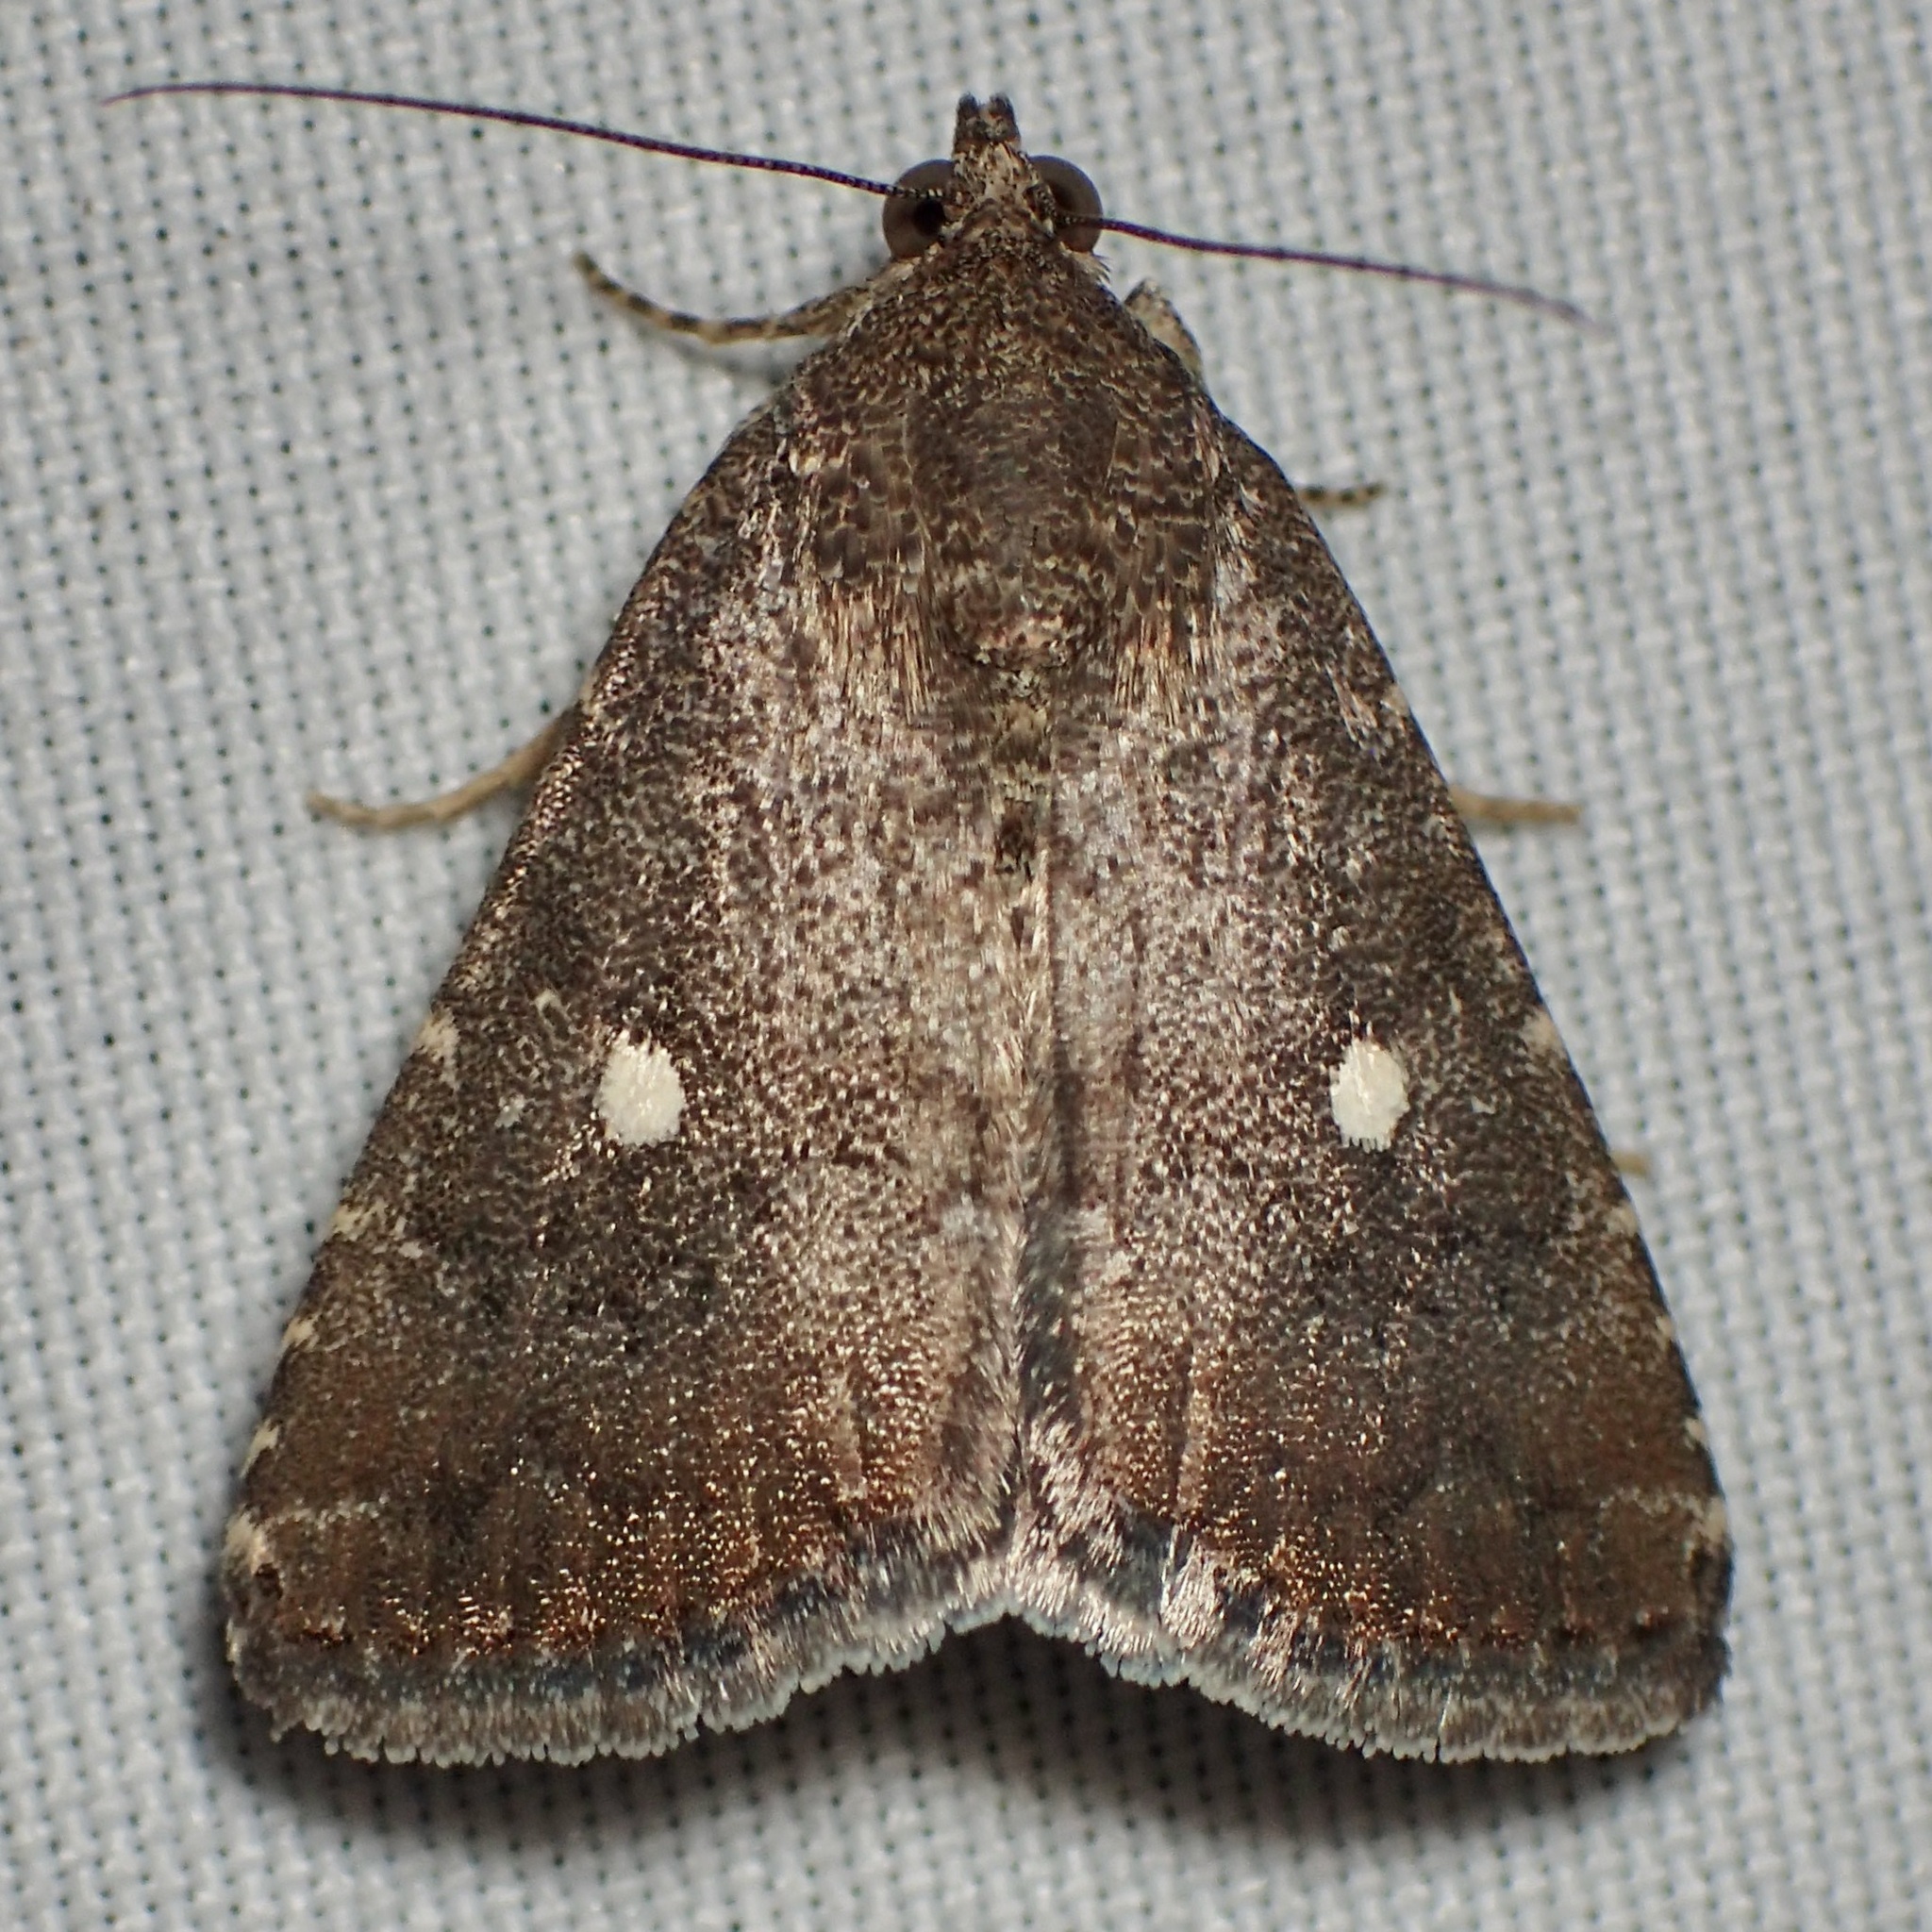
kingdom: Animalia
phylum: Arthropoda
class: Insecta
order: Lepidoptera
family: Noctuidae
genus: Amyna
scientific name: Amyna stricta
